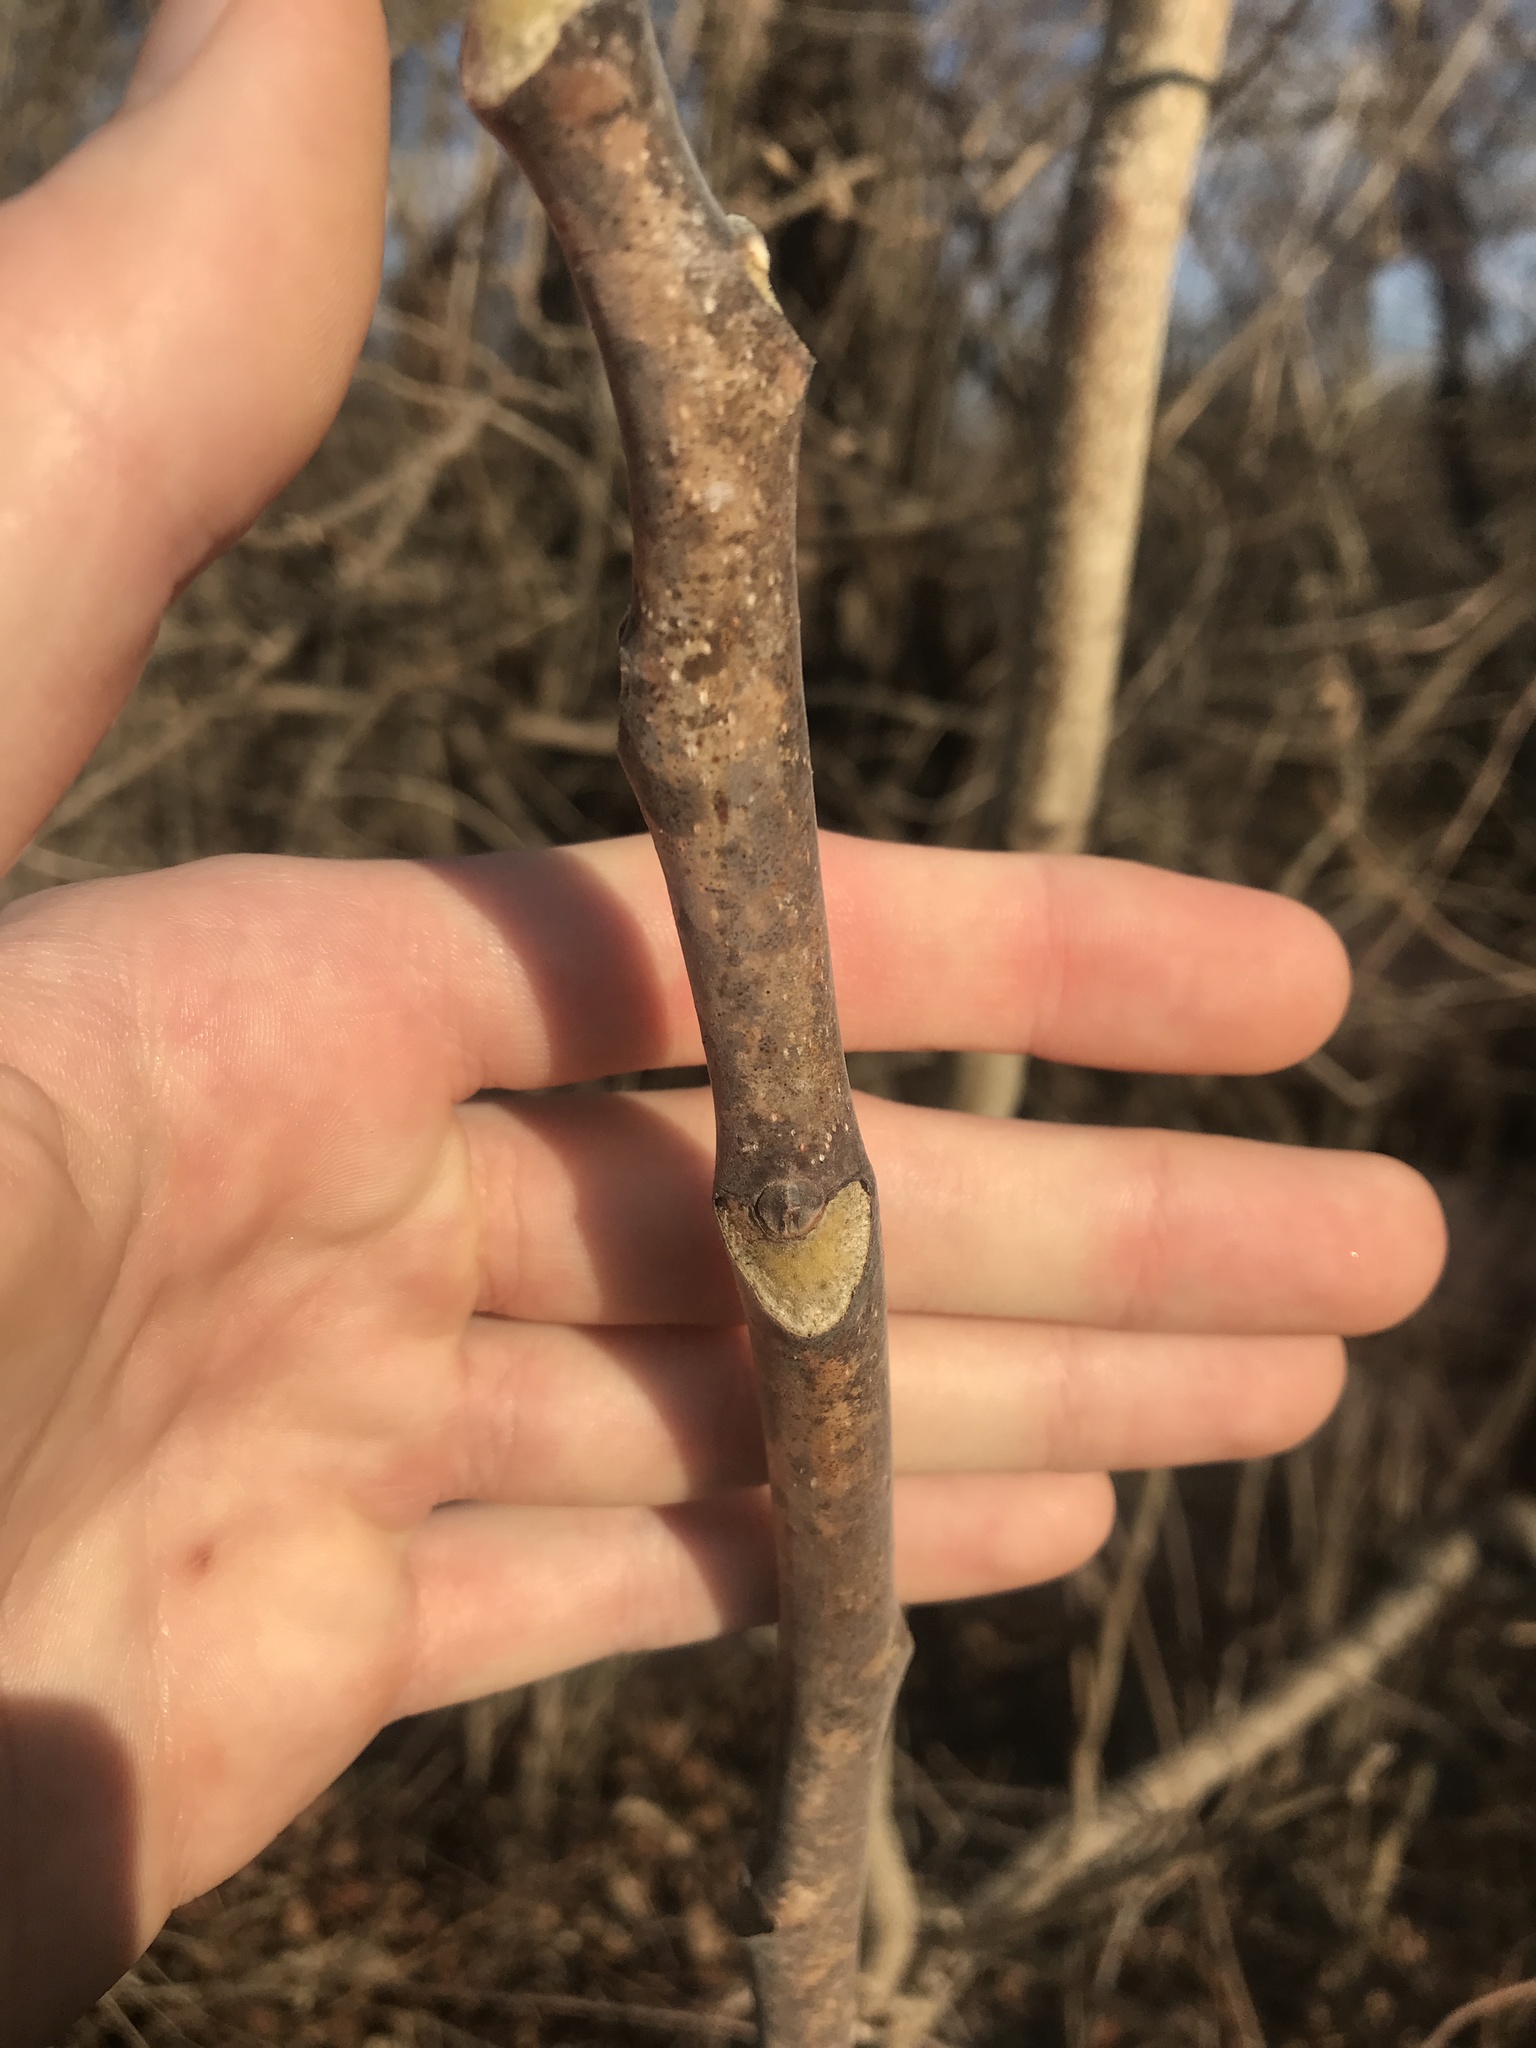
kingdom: Plantae
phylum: Tracheophyta
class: Magnoliopsida
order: Sapindales
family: Simaroubaceae
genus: Ailanthus
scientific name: Ailanthus altissima
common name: Tree-of-heaven
